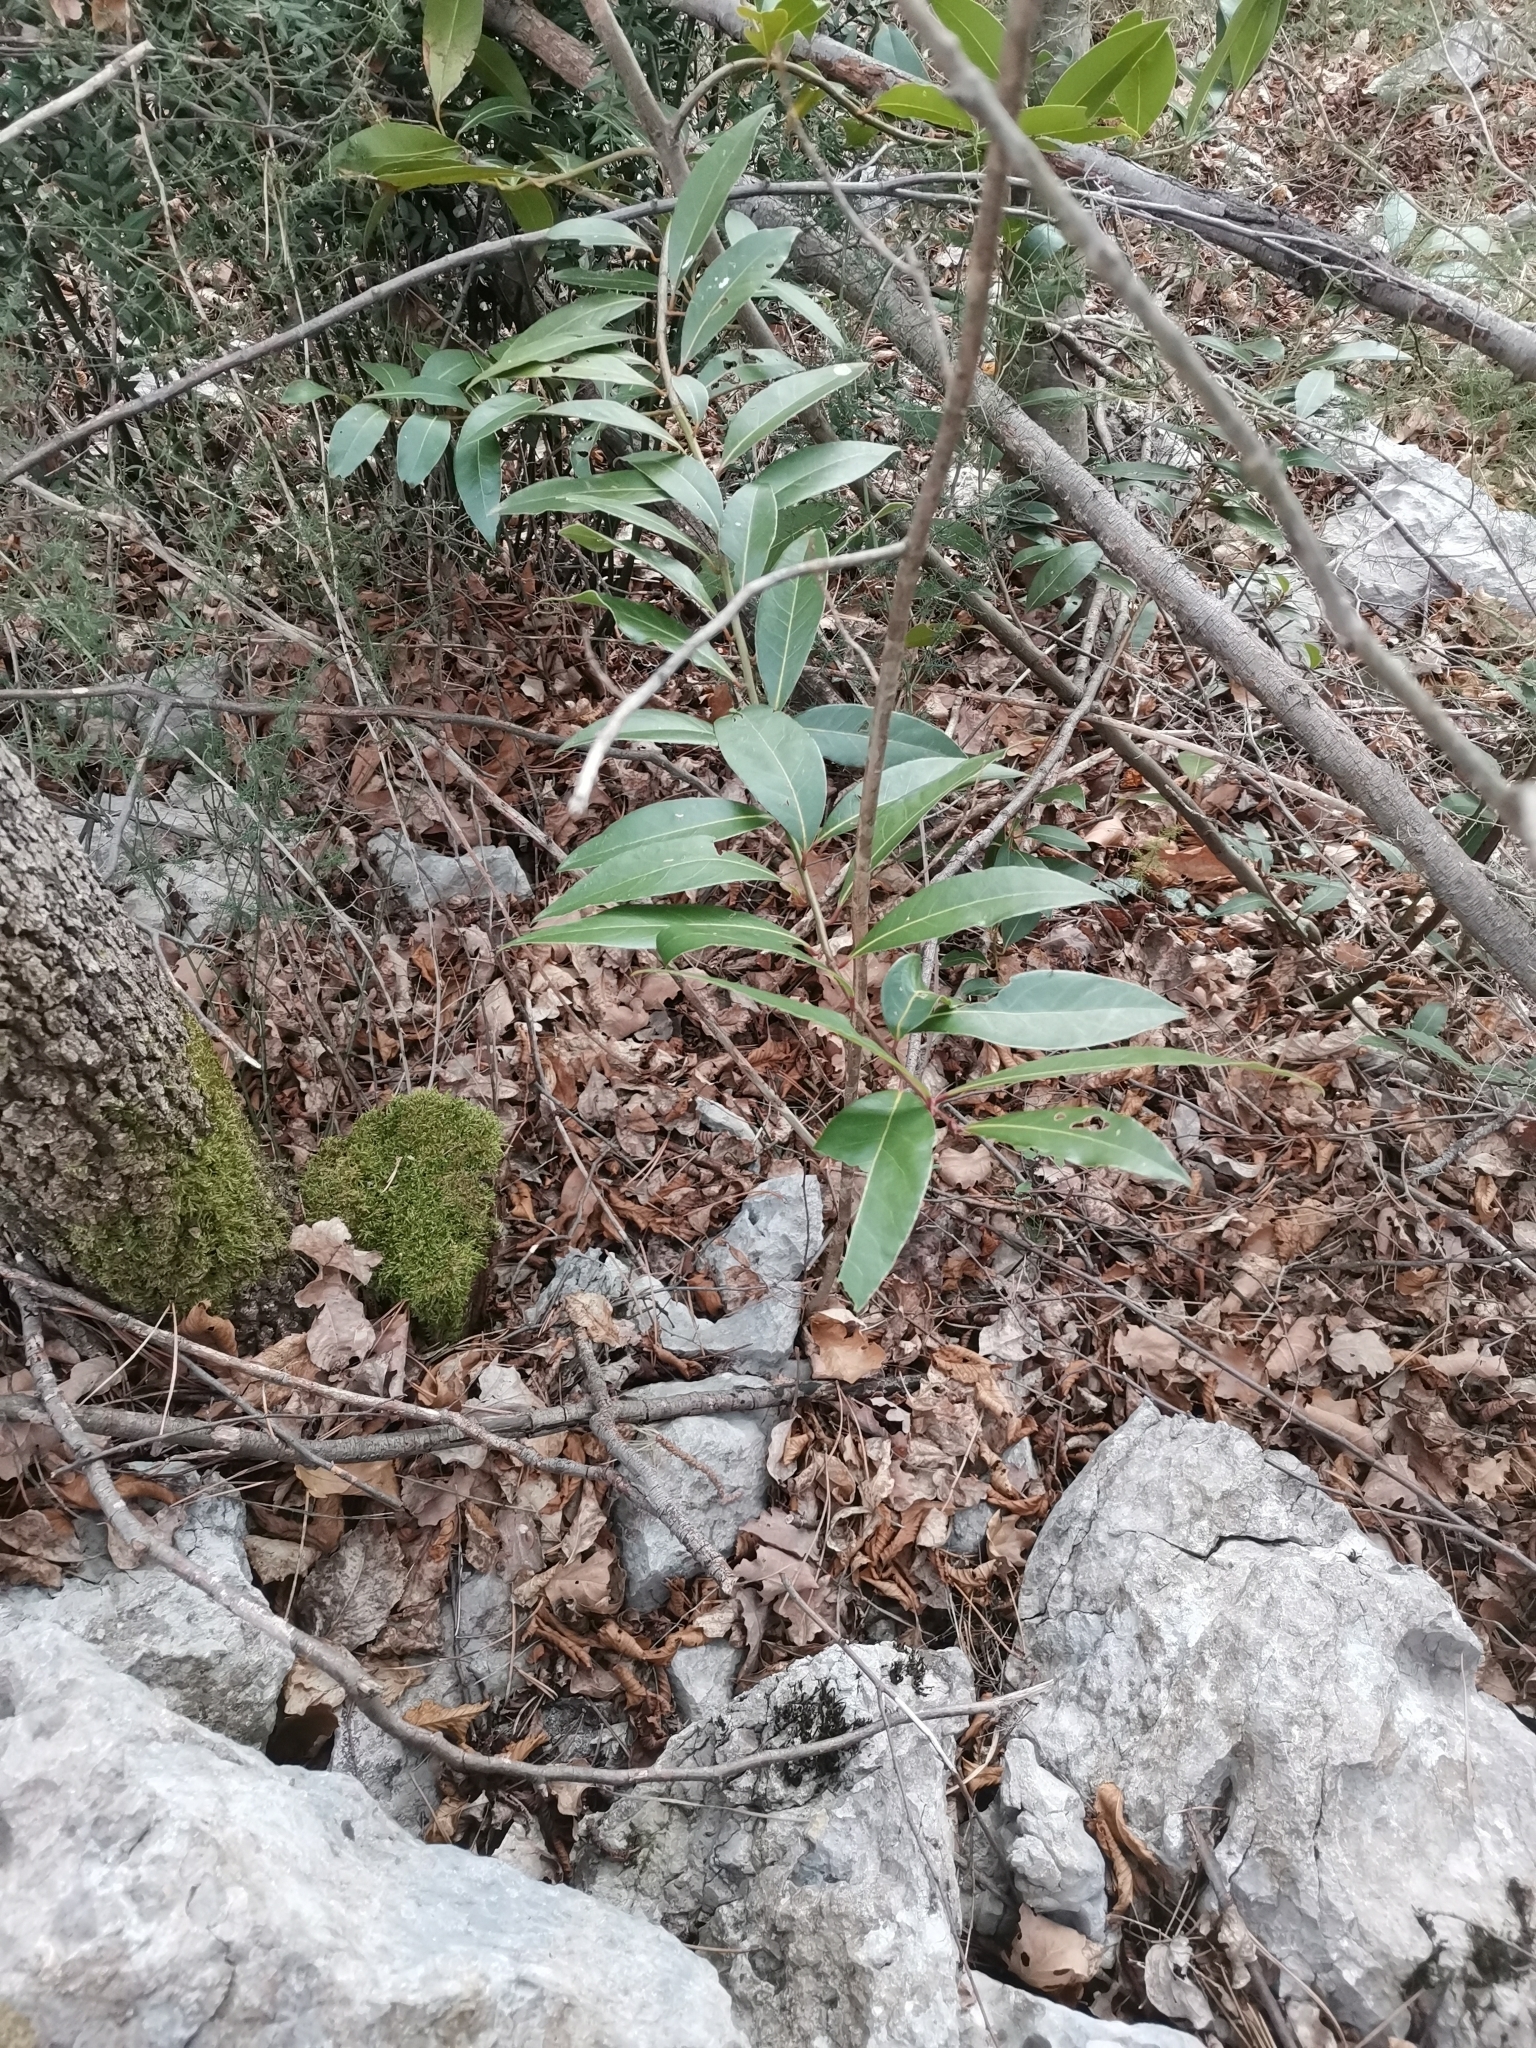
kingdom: Plantae
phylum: Tracheophyta
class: Magnoliopsida
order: Laurales
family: Lauraceae
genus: Laurus
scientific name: Laurus nobilis
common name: Bay
